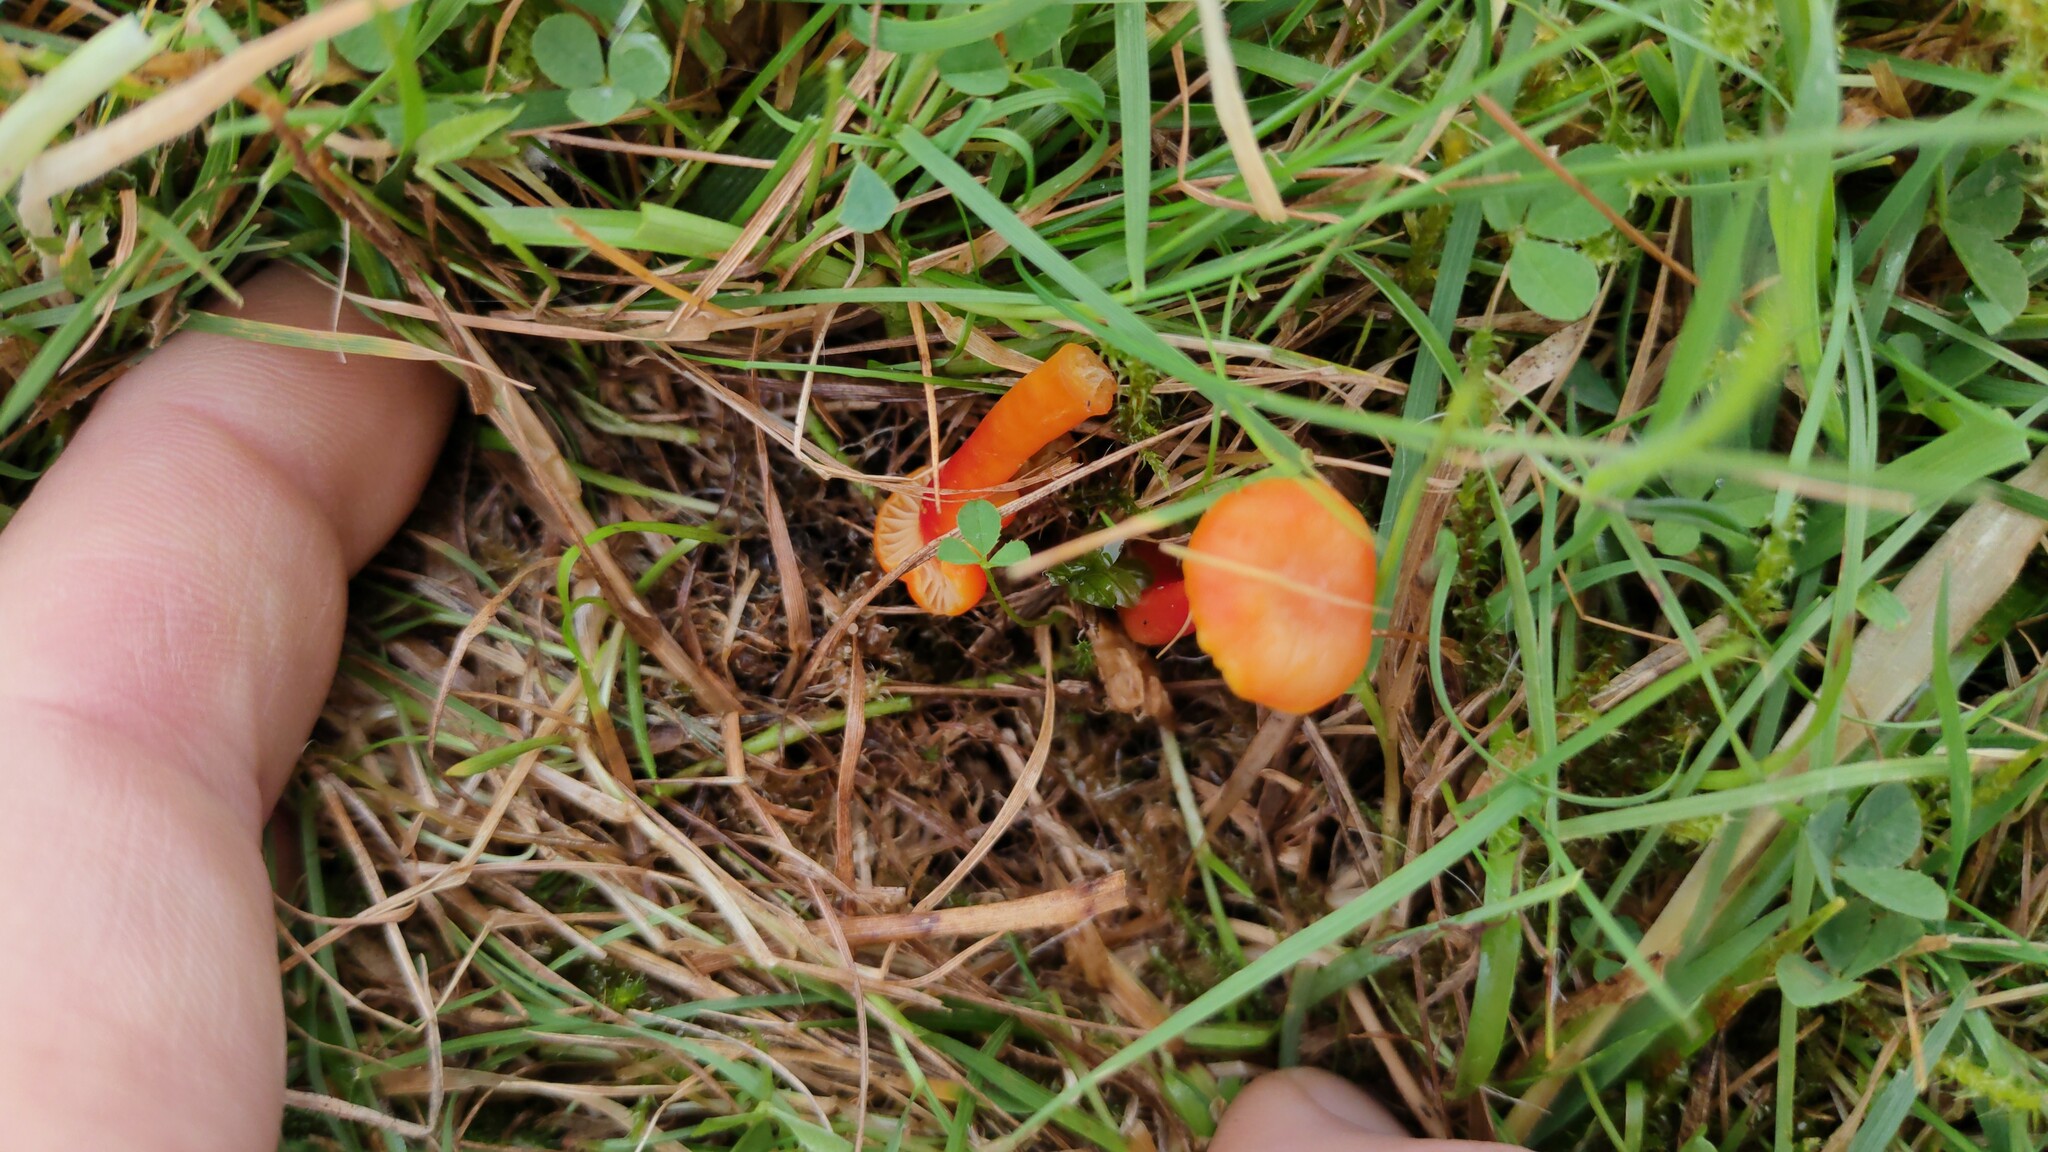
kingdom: Fungi
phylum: Basidiomycota
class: Agaricomycetes
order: Agaricales
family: Hygrophoraceae
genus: Hygrocybe
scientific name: Hygrocybe insipida
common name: Spangle waxcap
